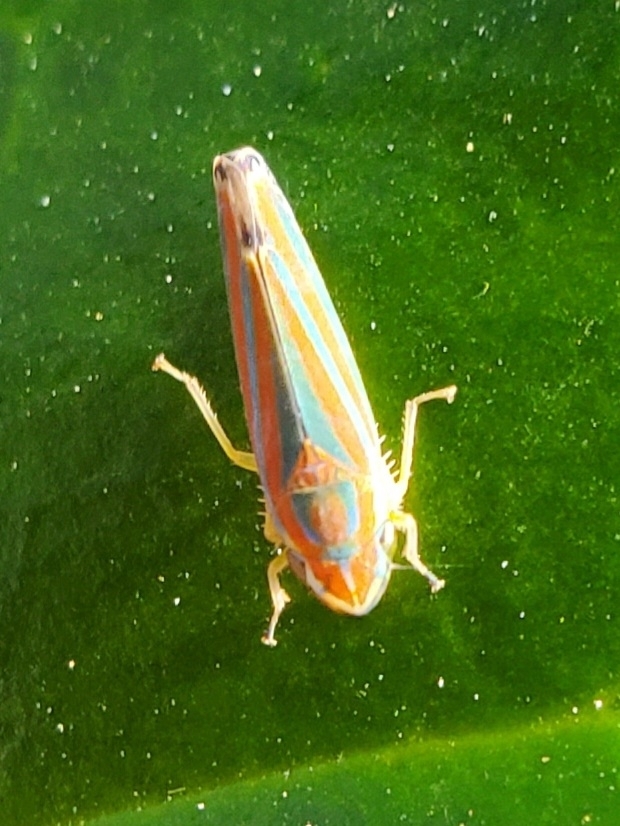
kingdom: Animalia
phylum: Arthropoda
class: Insecta
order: Hemiptera
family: Cicadellidae
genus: Graphocephala
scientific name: Graphocephala versuta
